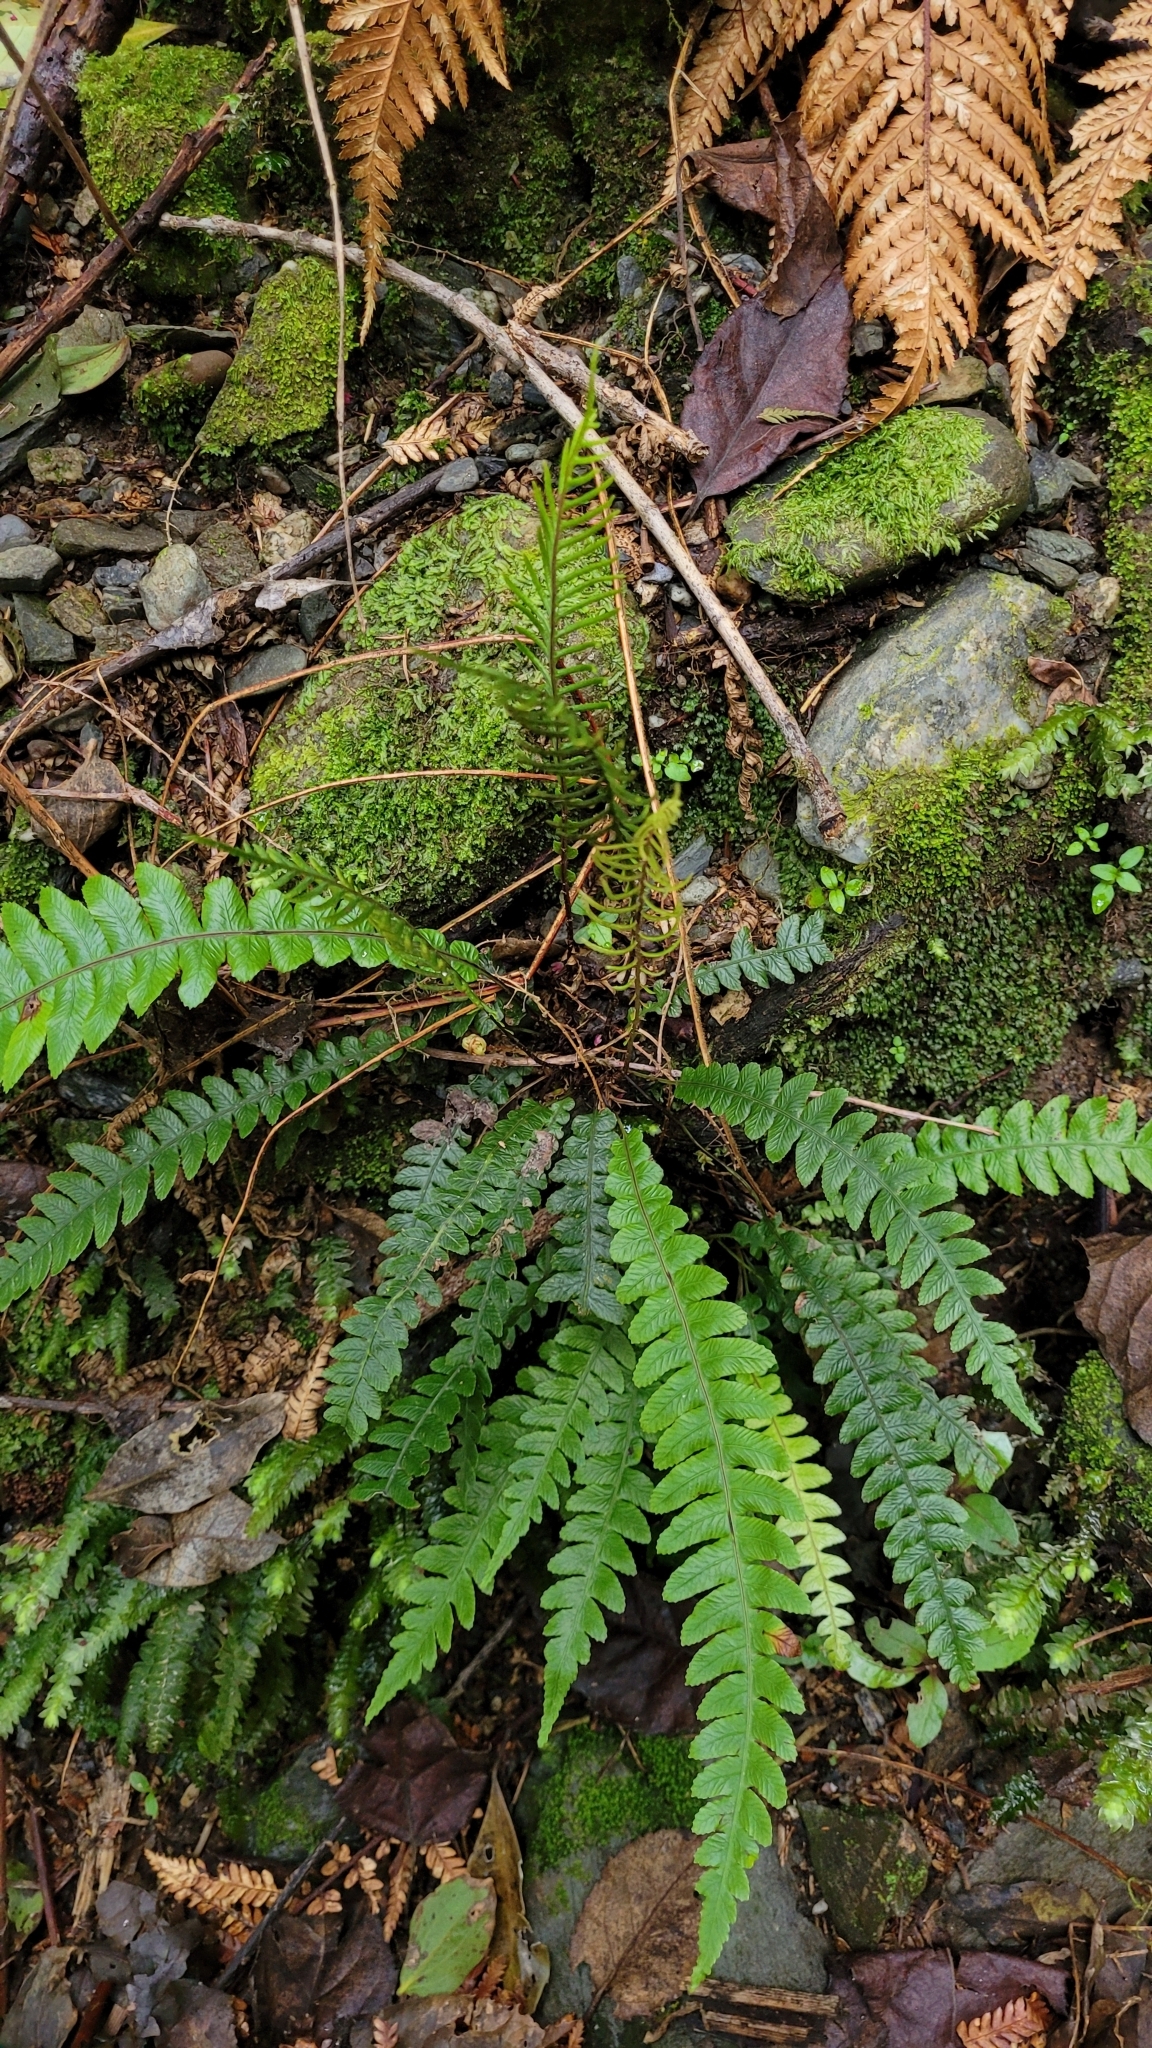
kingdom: Plantae
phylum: Tracheophyta
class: Polypodiopsida
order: Polypodiales
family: Blechnaceae
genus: Austroblechnum
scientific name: Austroblechnum lanceolatum
